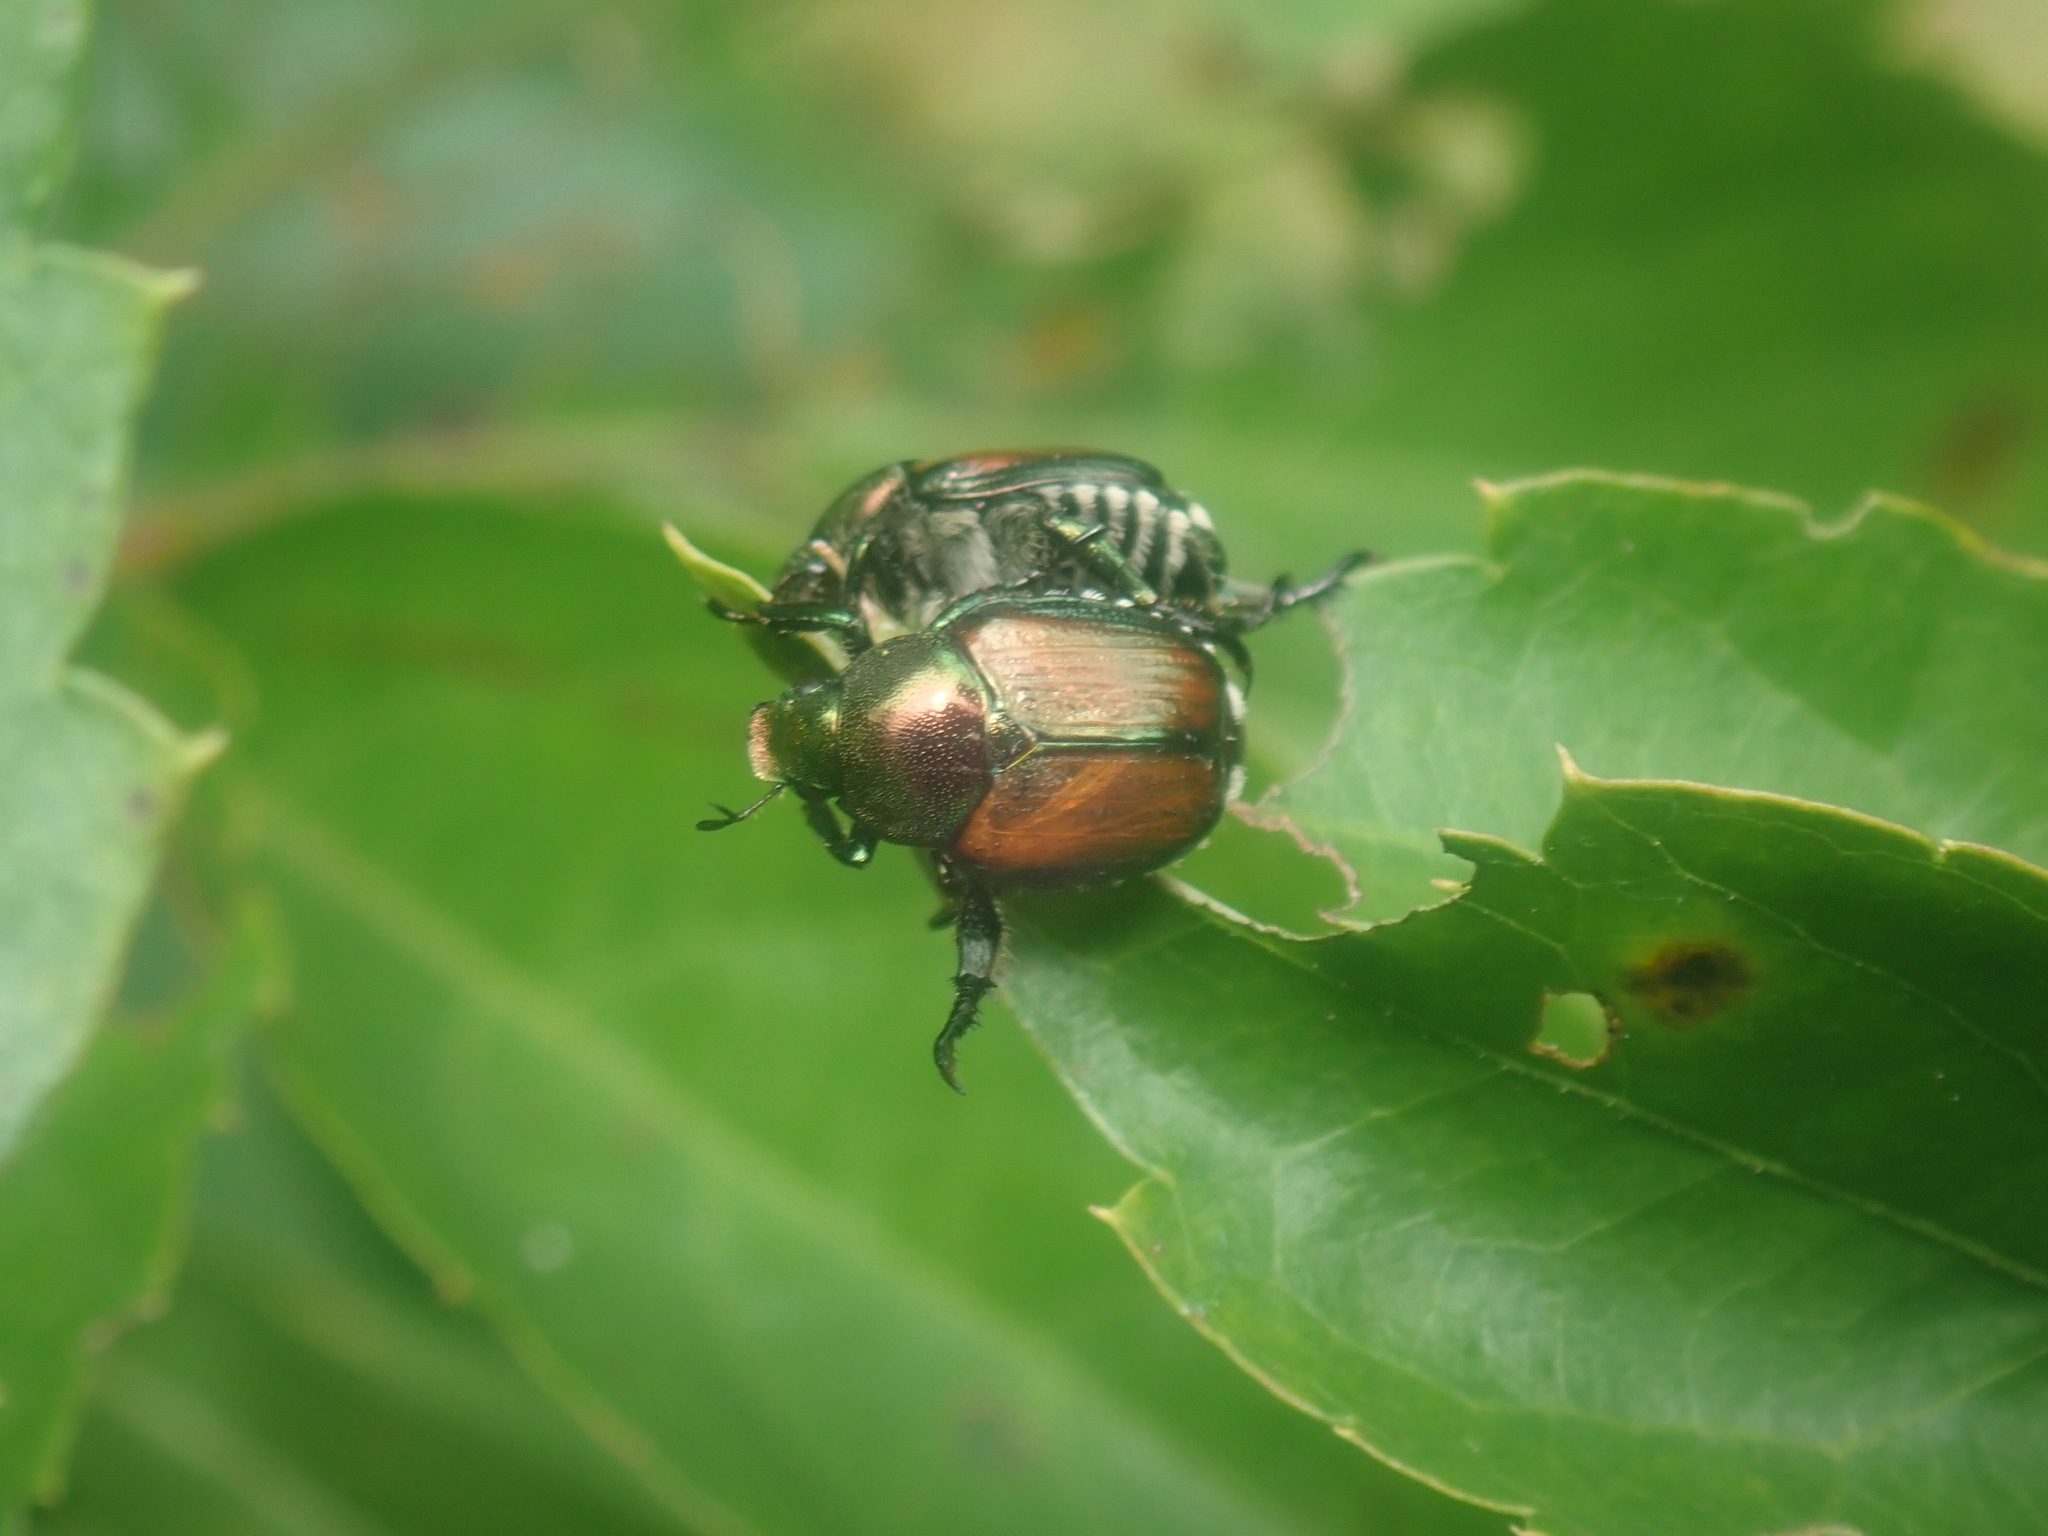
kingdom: Animalia
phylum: Arthropoda
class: Insecta
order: Coleoptera
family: Scarabaeidae
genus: Popillia
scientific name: Popillia japonica
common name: Japanese beetle
